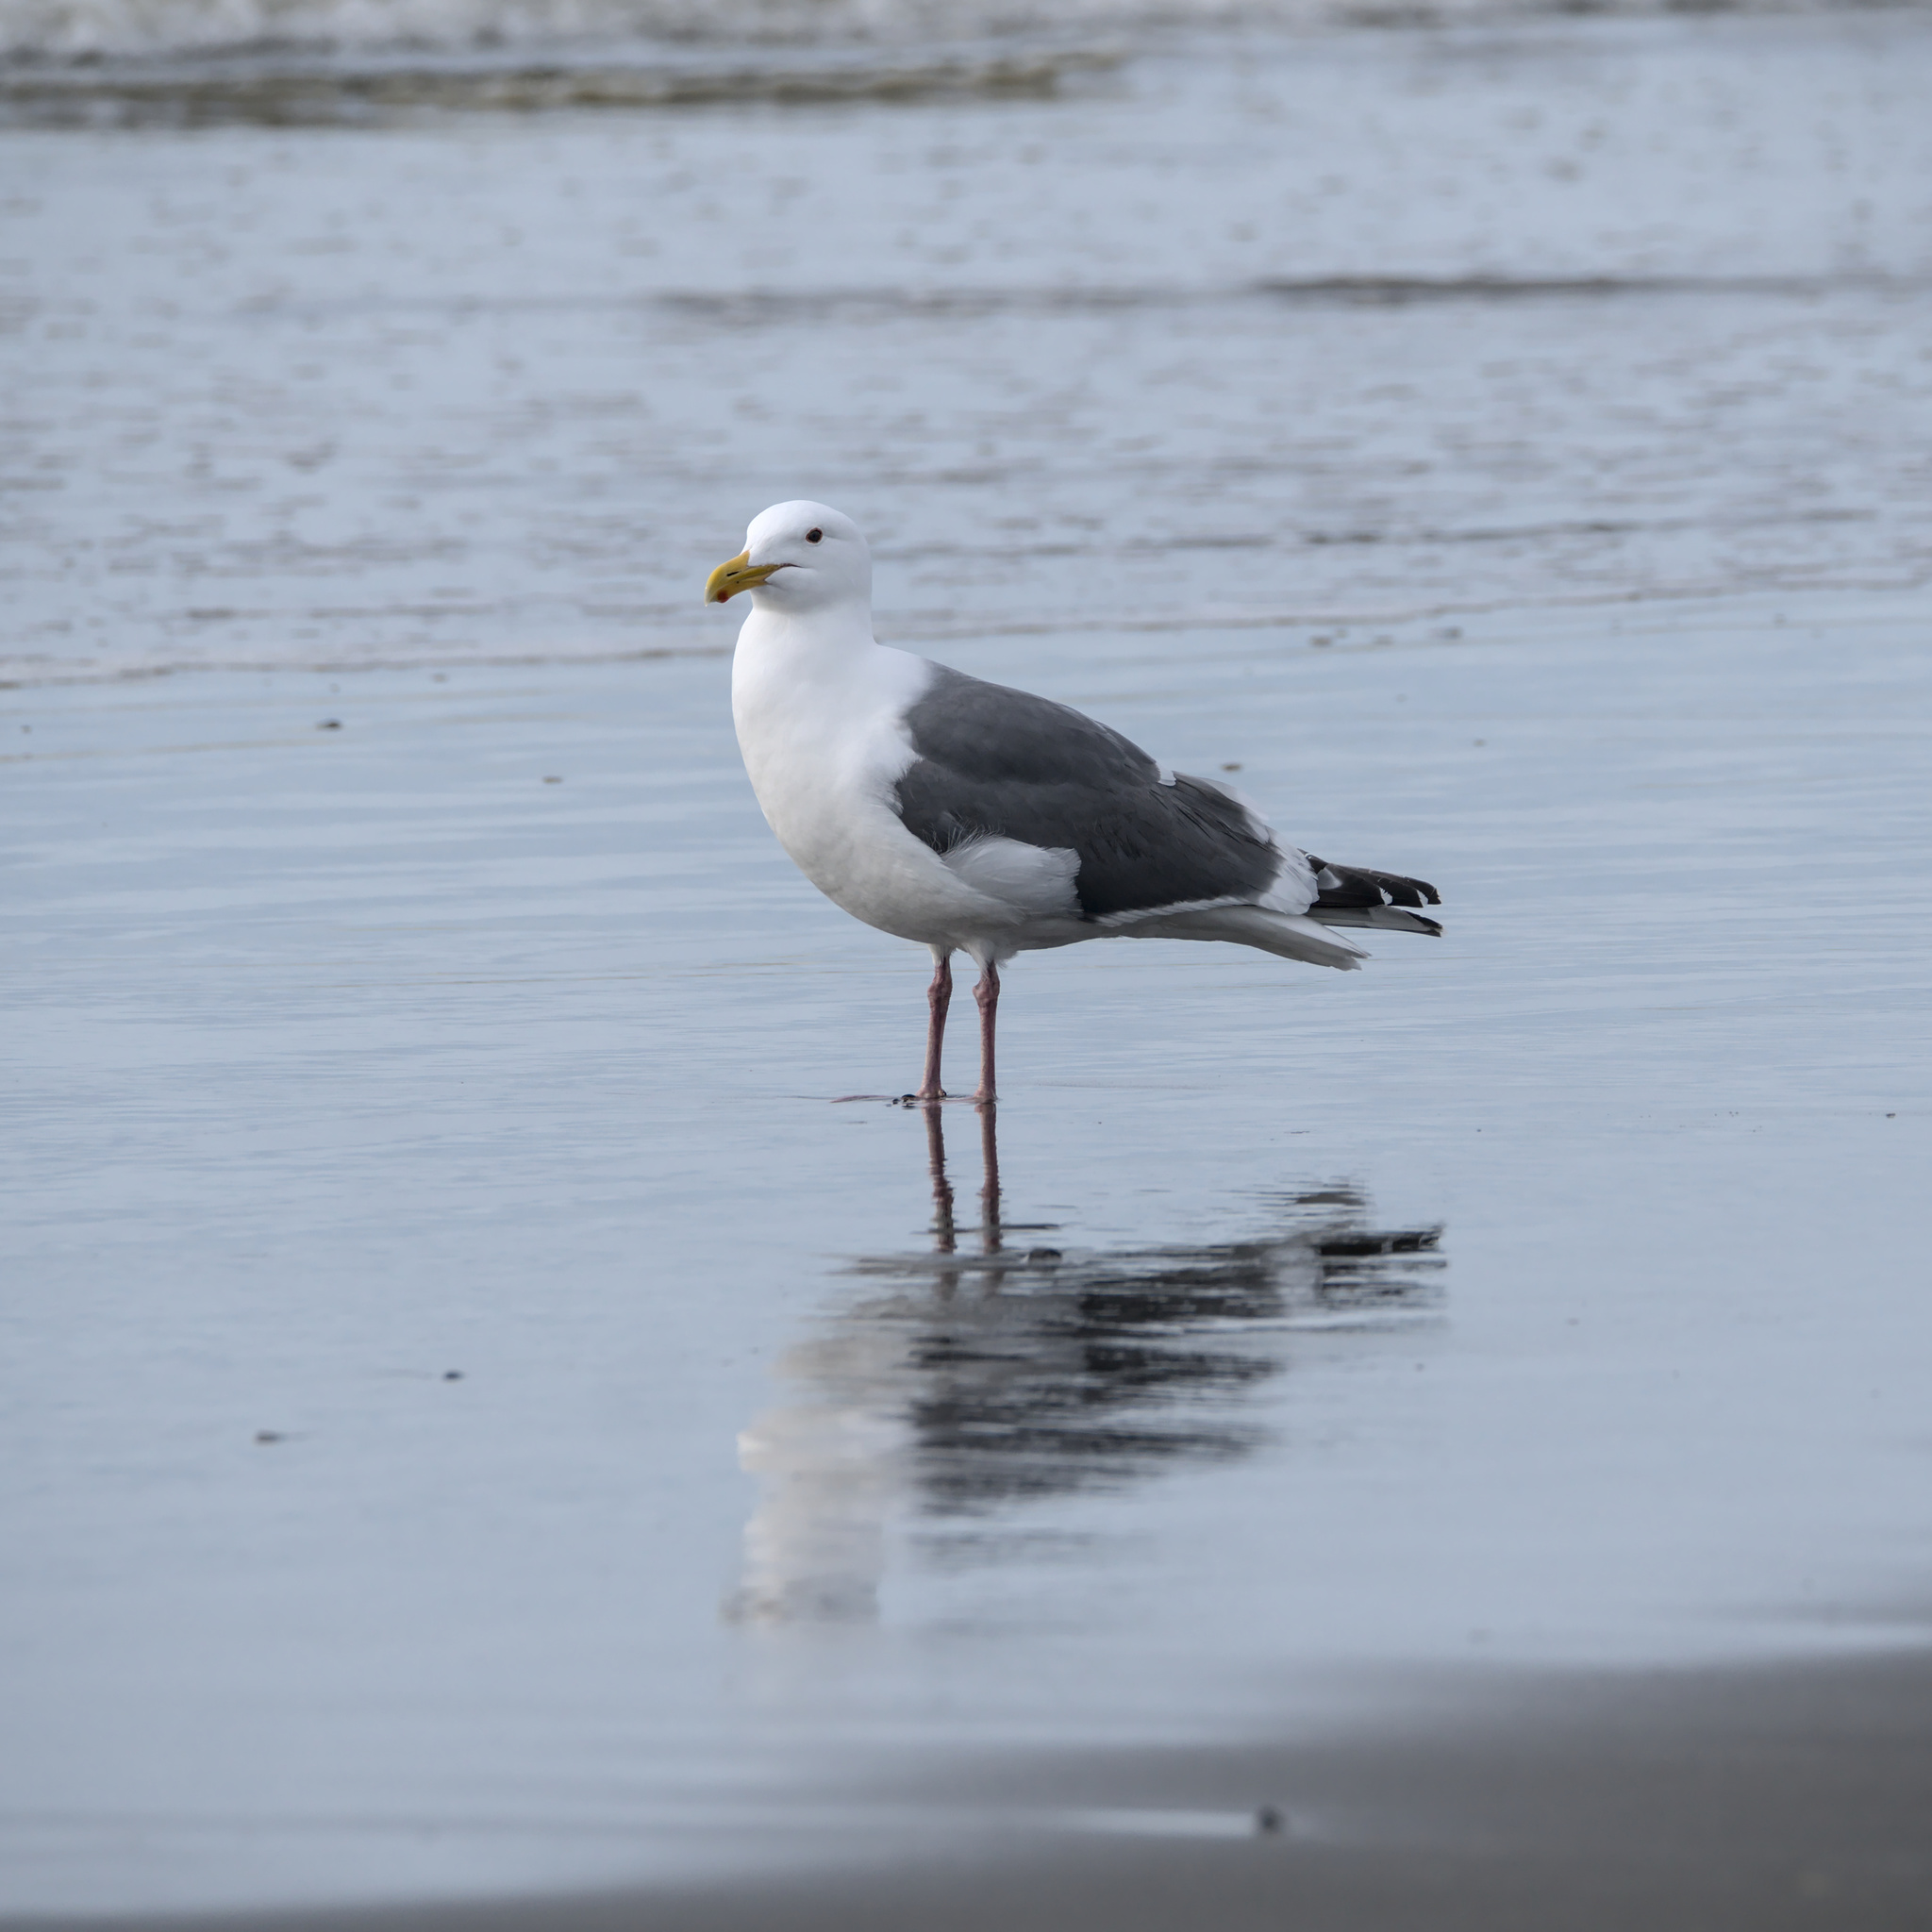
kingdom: Animalia
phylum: Chordata
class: Aves
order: Charadriiformes
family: Laridae
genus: Larus
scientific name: Larus occidentalis
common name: Western gull
